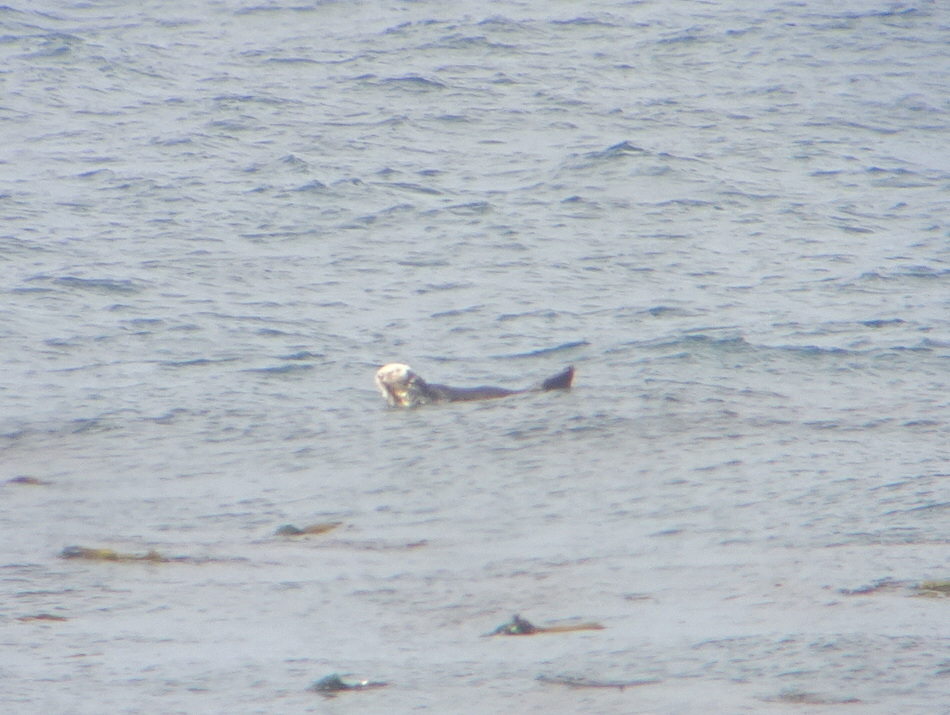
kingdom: Animalia
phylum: Chordata
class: Mammalia
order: Carnivora
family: Mustelidae
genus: Enhydra
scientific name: Enhydra lutris
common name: Sea otter
